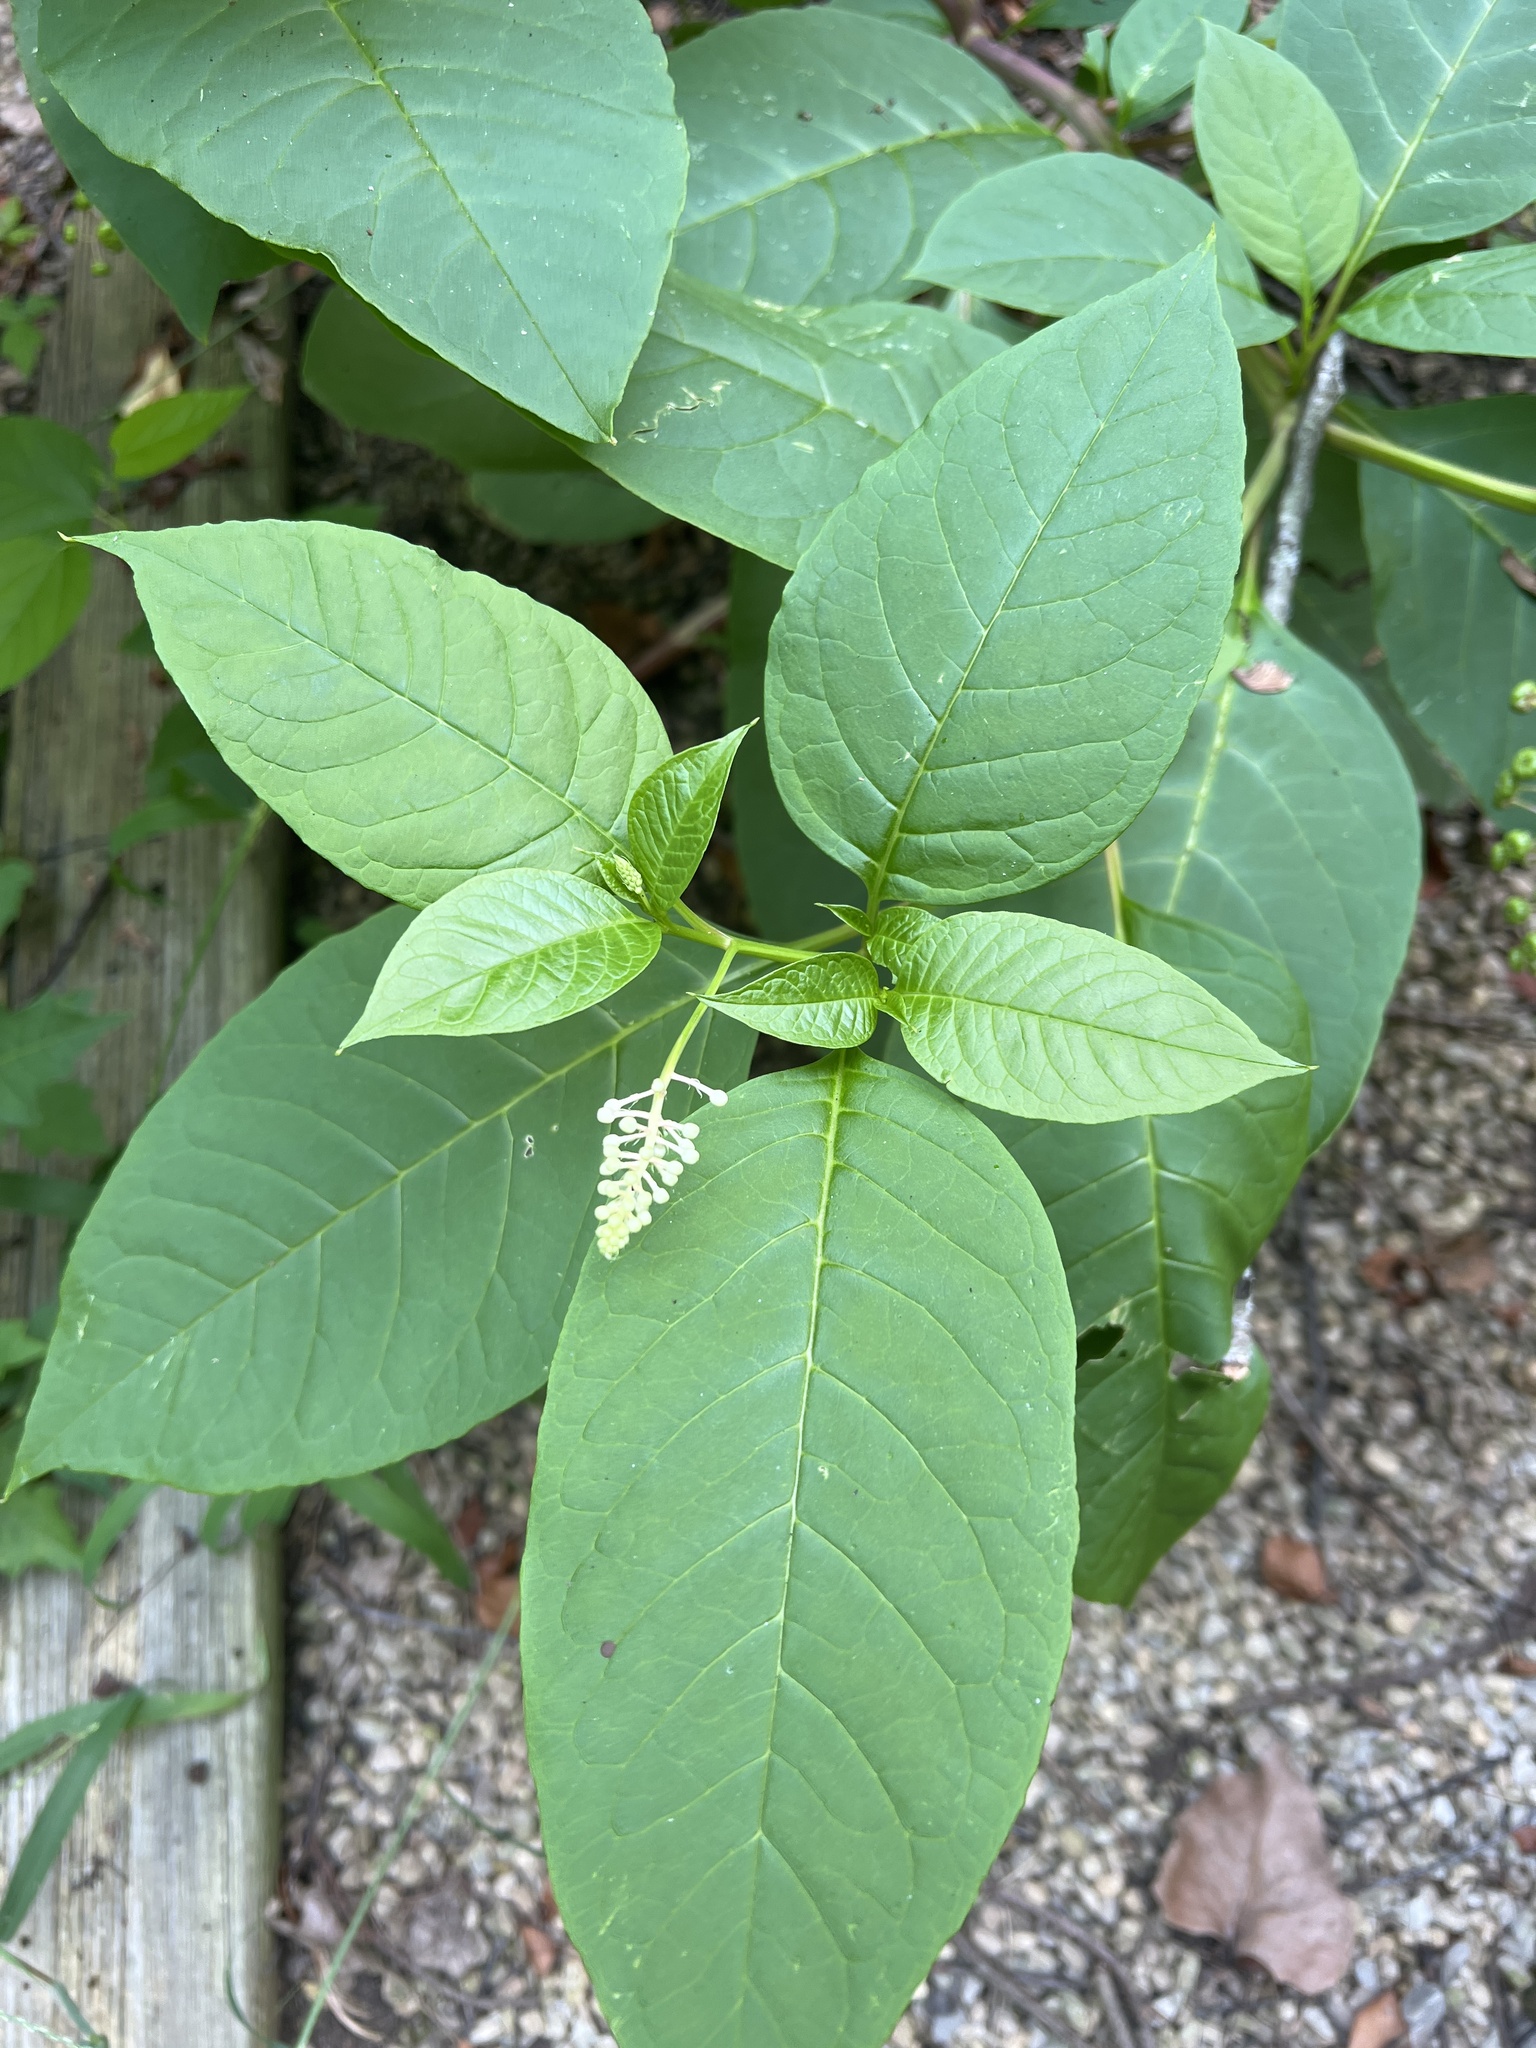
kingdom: Plantae
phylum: Tracheophyta
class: Magnoliopsida
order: Caryophyllales
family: Phytolaccaceae
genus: Phytolacca
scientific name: Phytolacca americana
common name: American pokeweed
